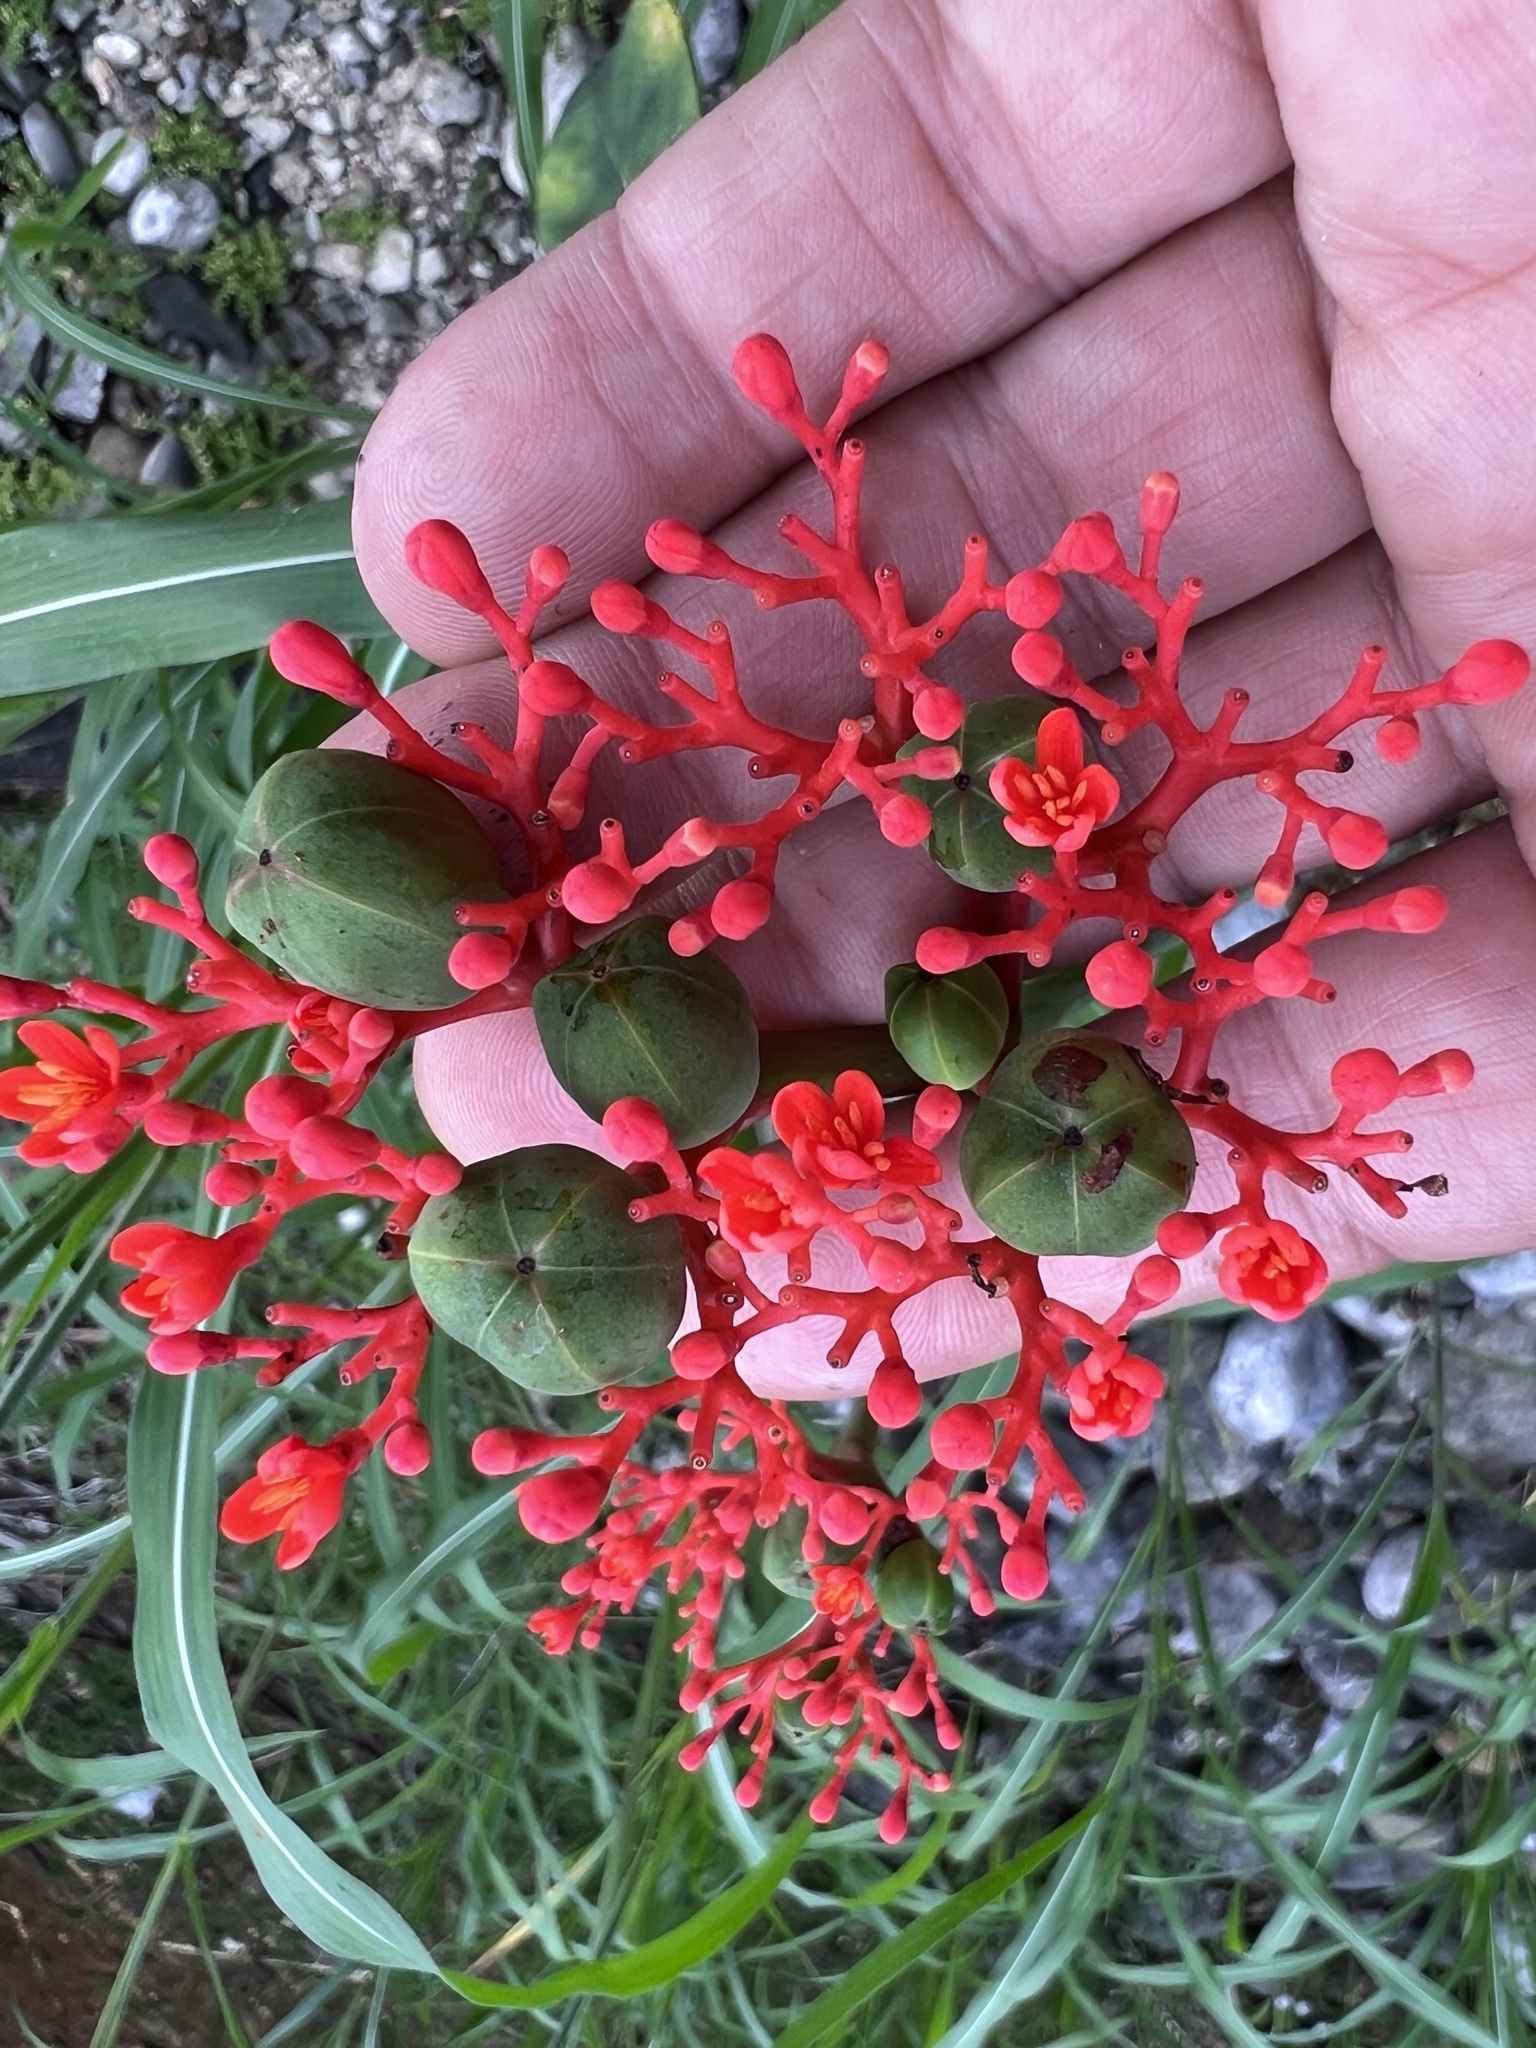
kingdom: Plantae
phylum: Tracheophyta
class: Magnoliopsida
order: Malpighiales
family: Euphorbiaceae
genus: Jatropha
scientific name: Jatropha podagrica
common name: Gout stalk
